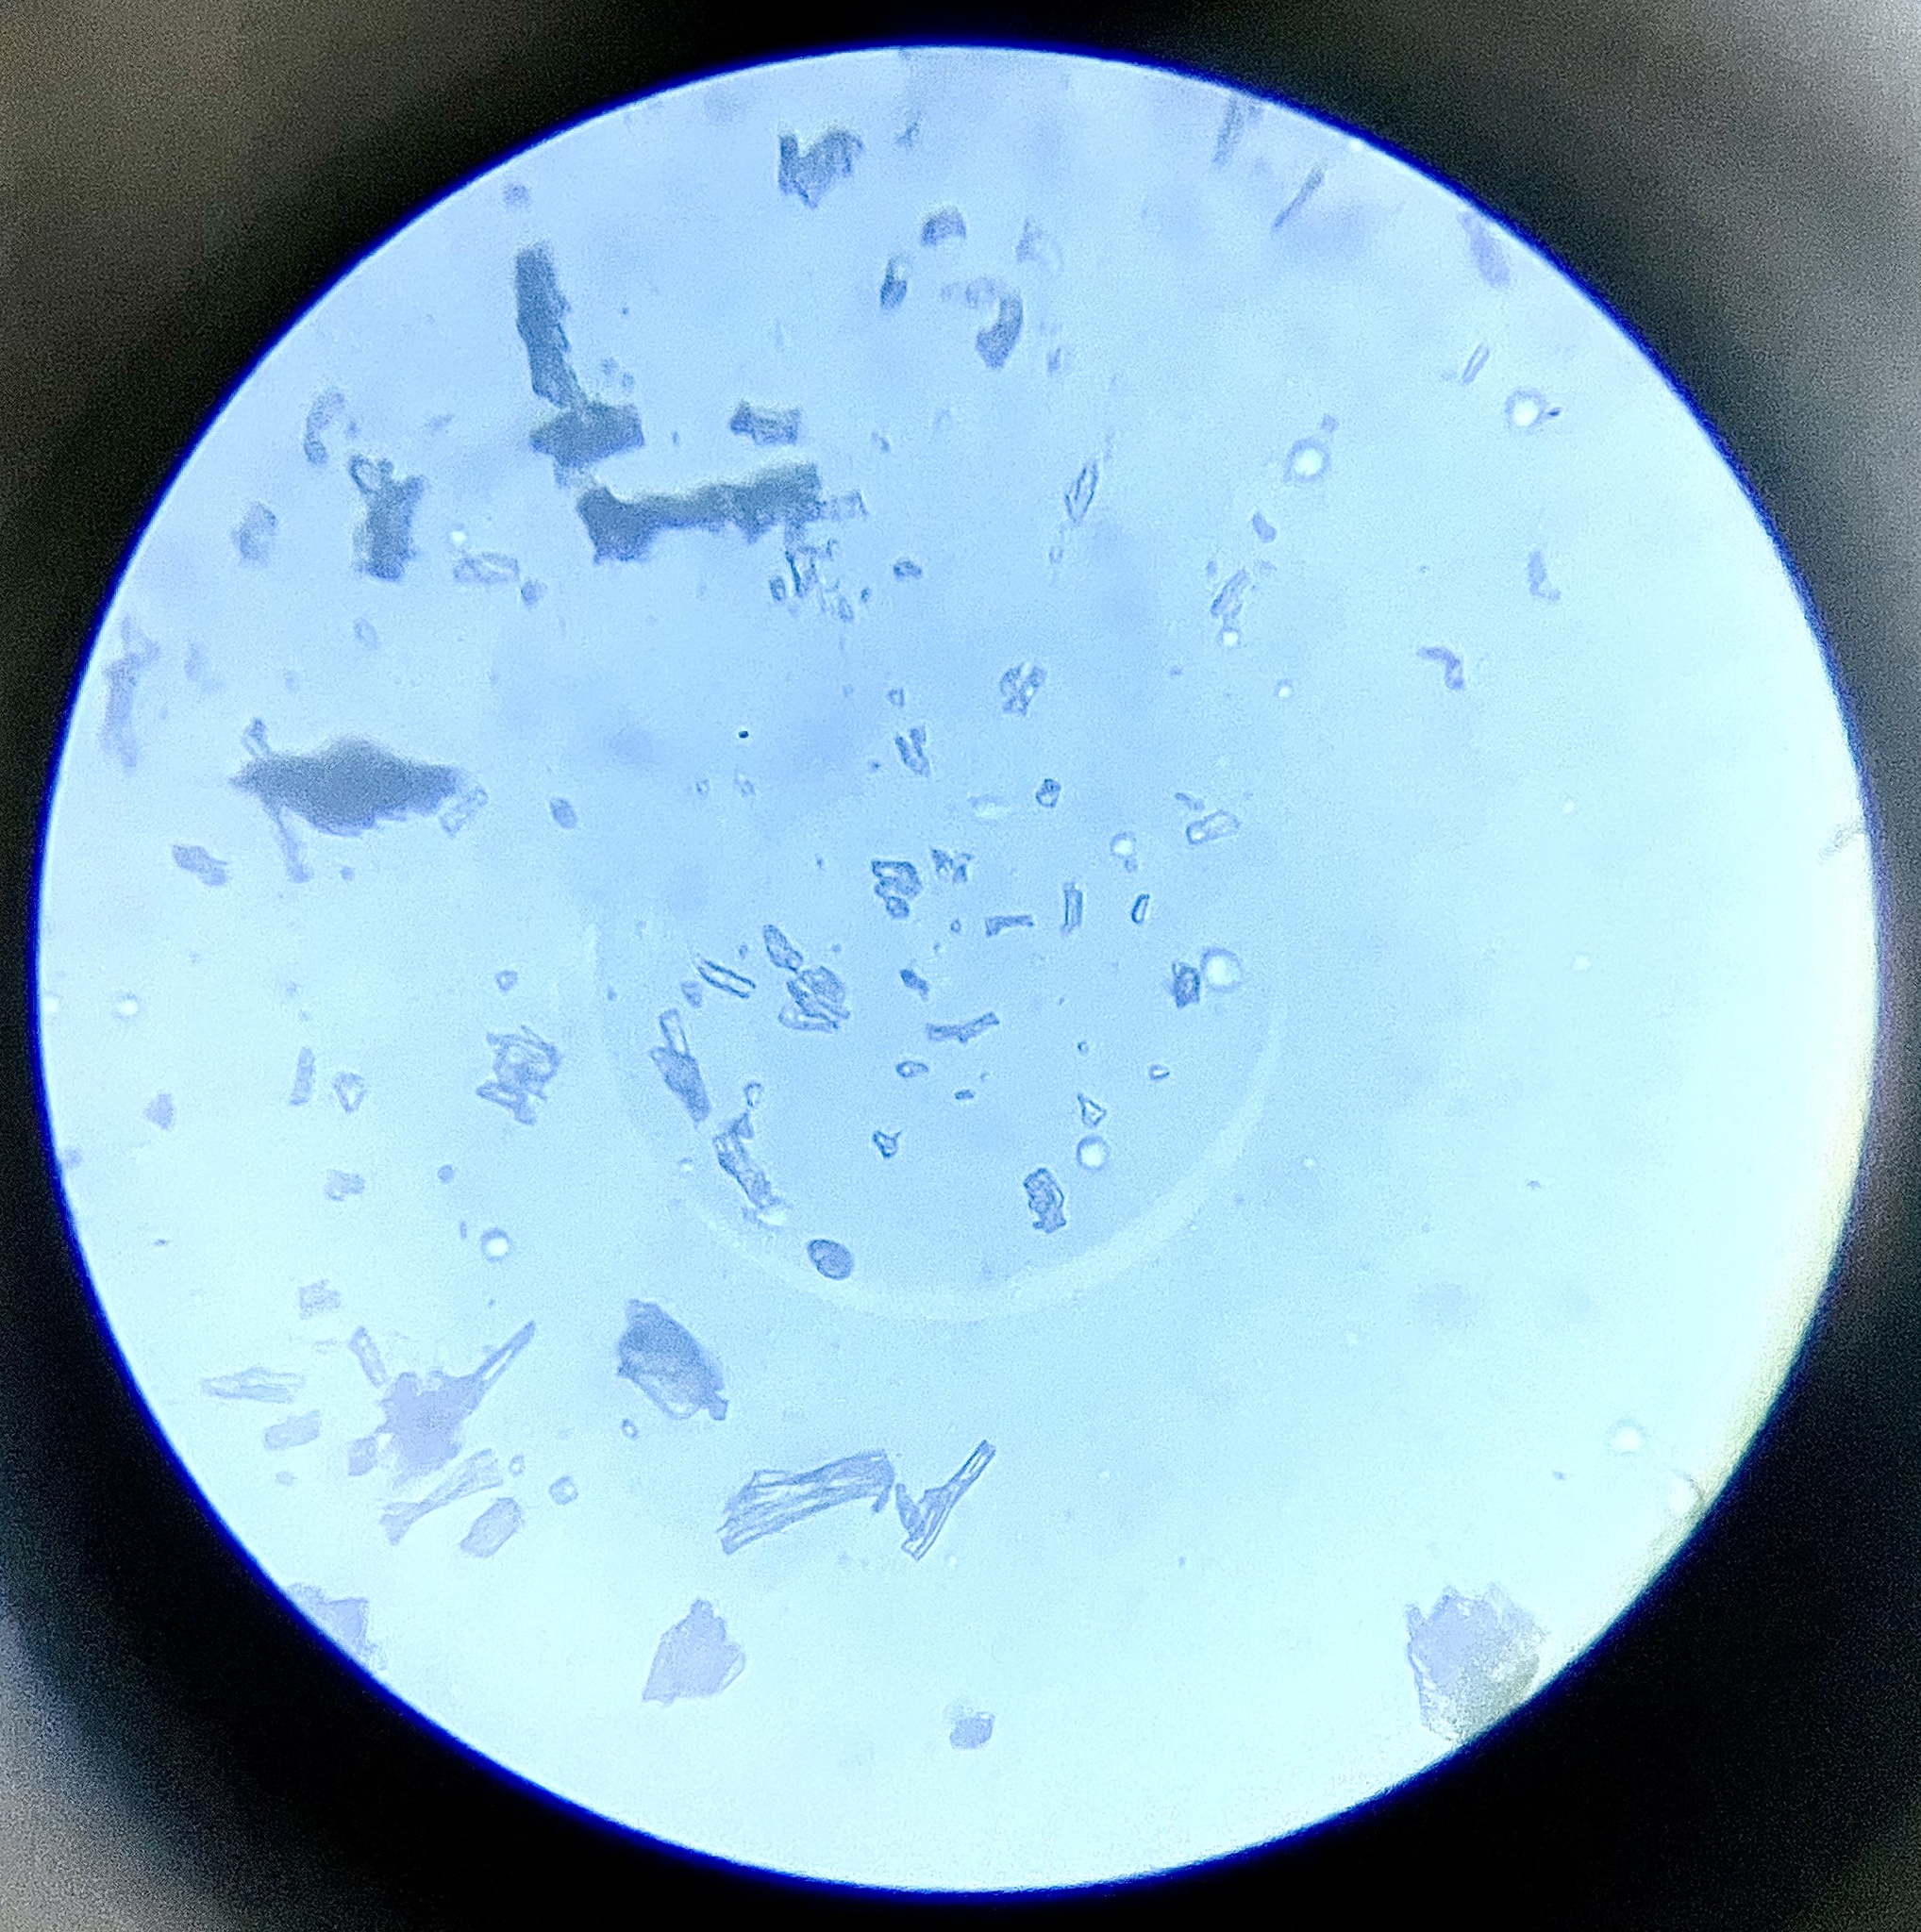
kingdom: Fungi
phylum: Basidiomycota
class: Agaricomycetes
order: Polyporales
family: Polyporaceae
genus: Trametes
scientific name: Trametes cinnabarina
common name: Northern cinnabar polypore
